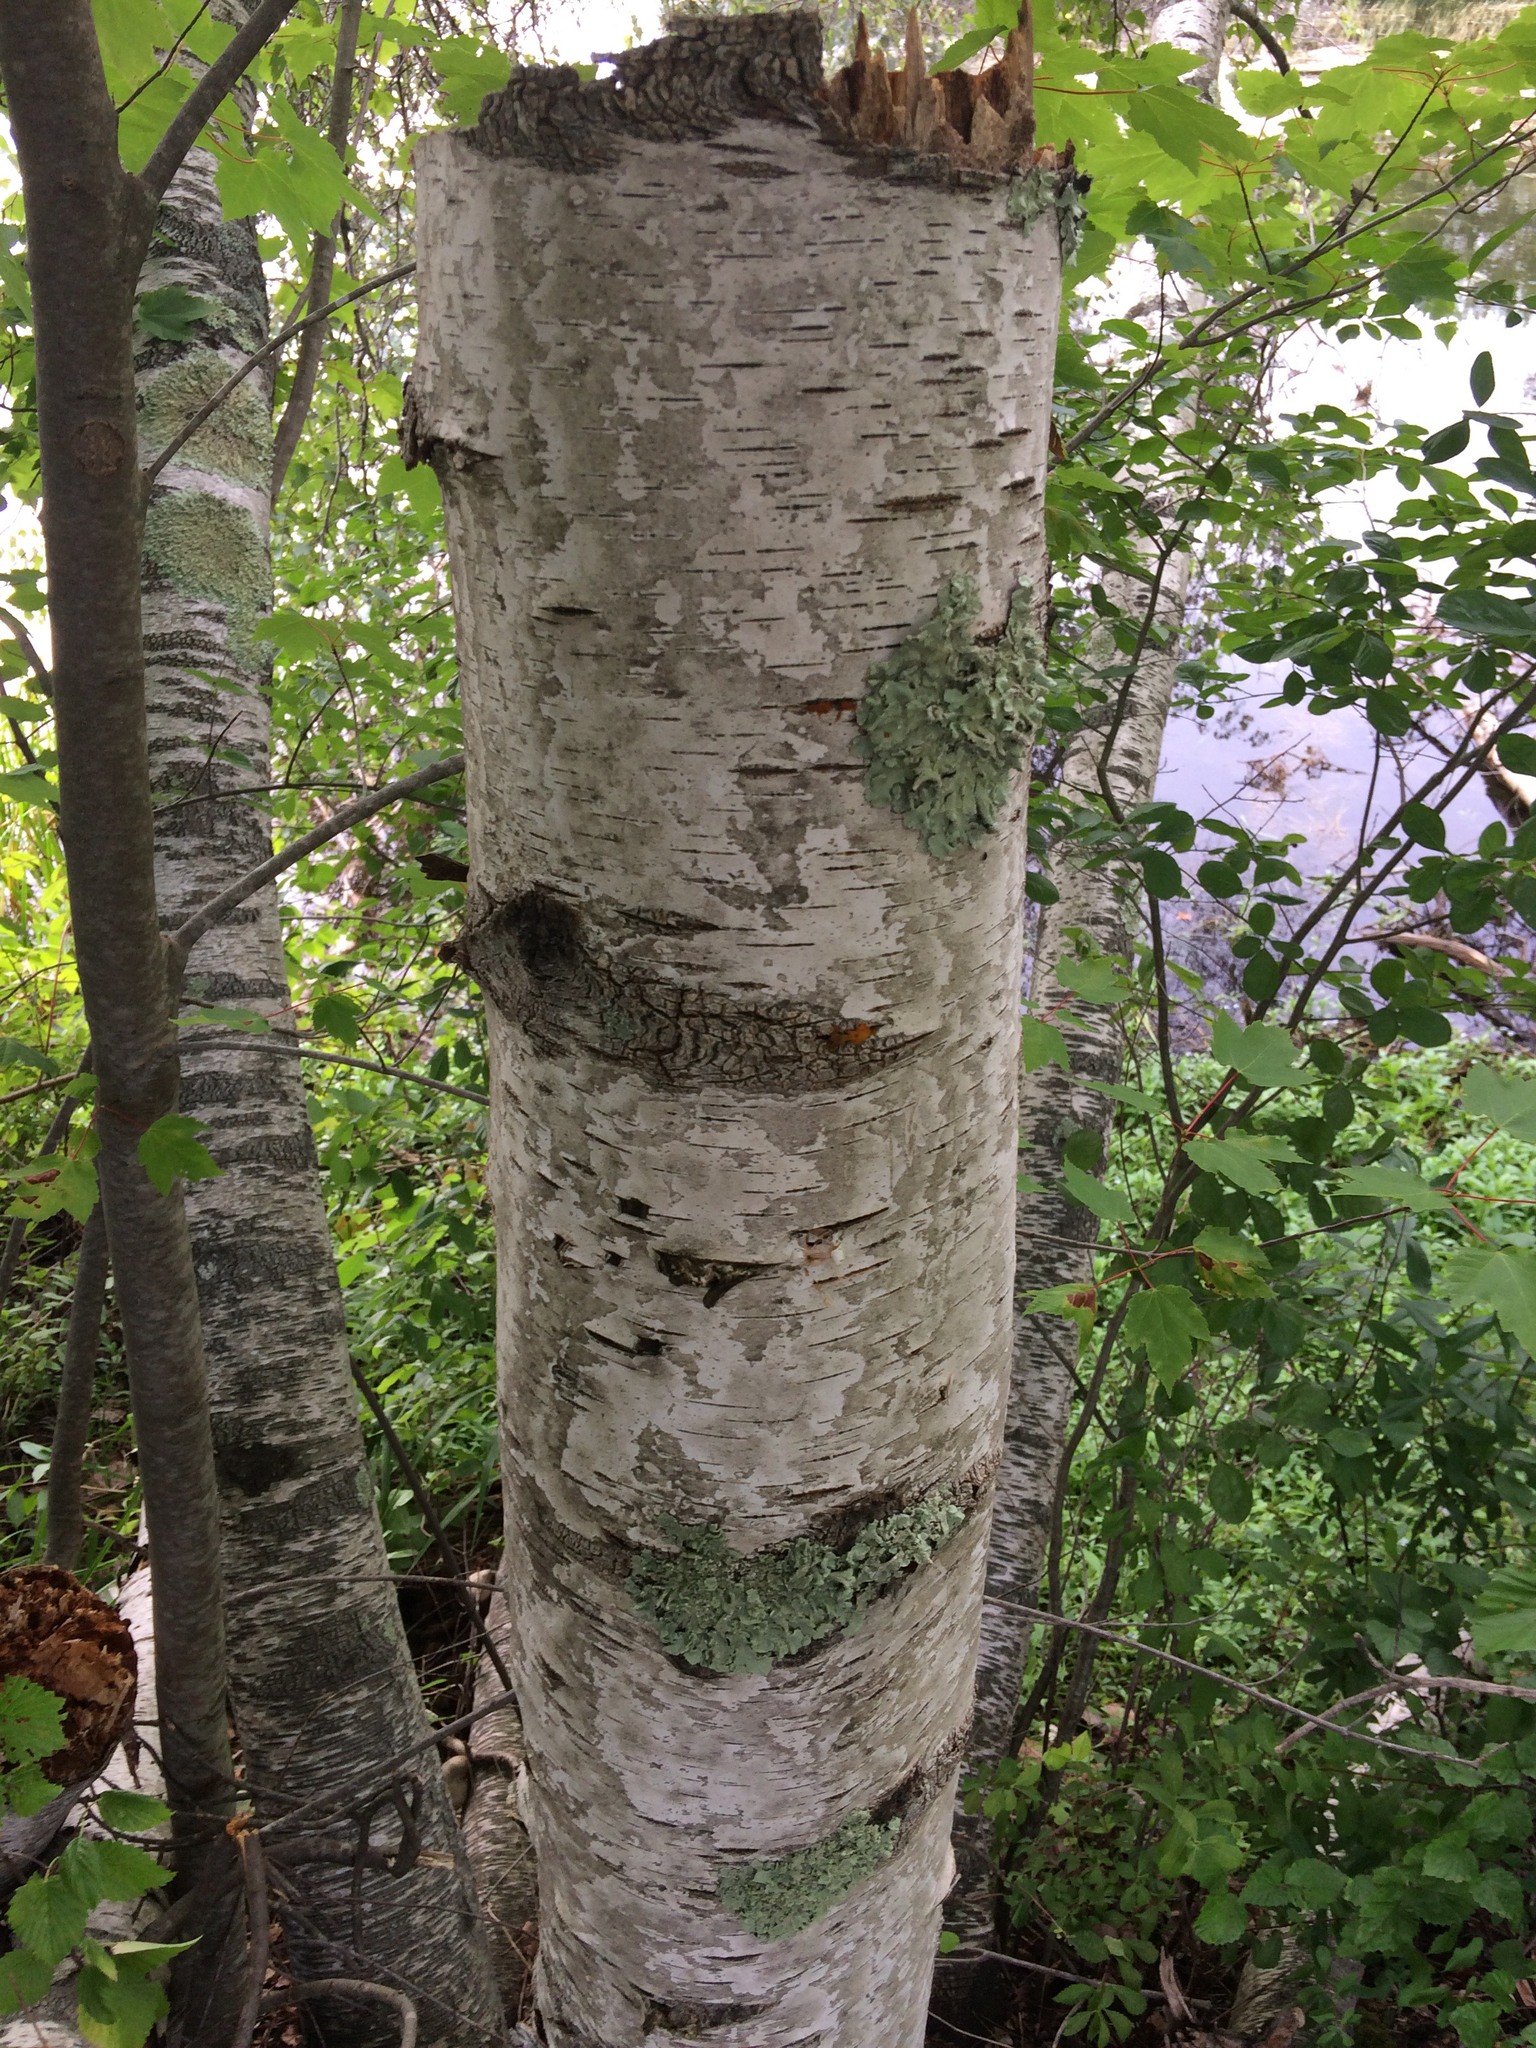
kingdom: Plantae
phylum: Tracheophyta
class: Magnoliopsida
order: Fagales
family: Betulaceae
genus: Betula
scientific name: Betula papyrifera
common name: Paper birch
